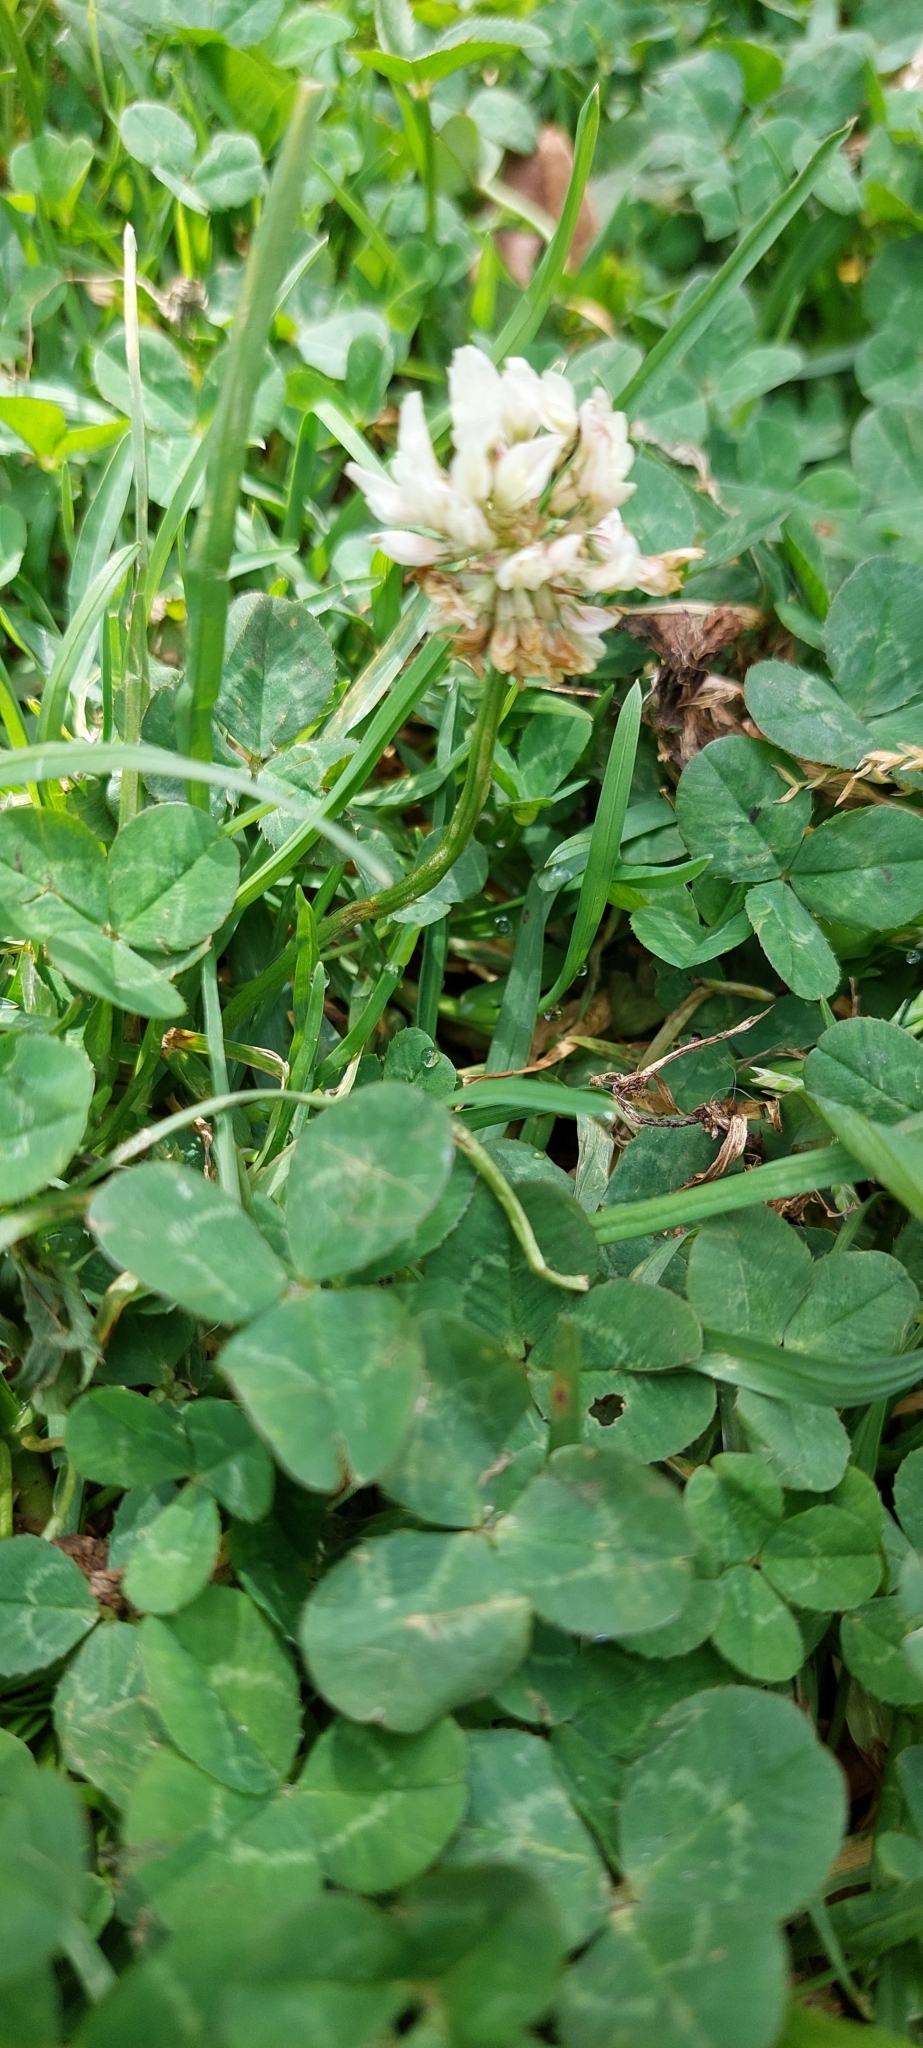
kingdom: Plantae
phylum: Tracheophyta
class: Magnoliopsida
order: Fabales
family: Fabaceae
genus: Trifolium
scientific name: Trifolium repens
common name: White clover
